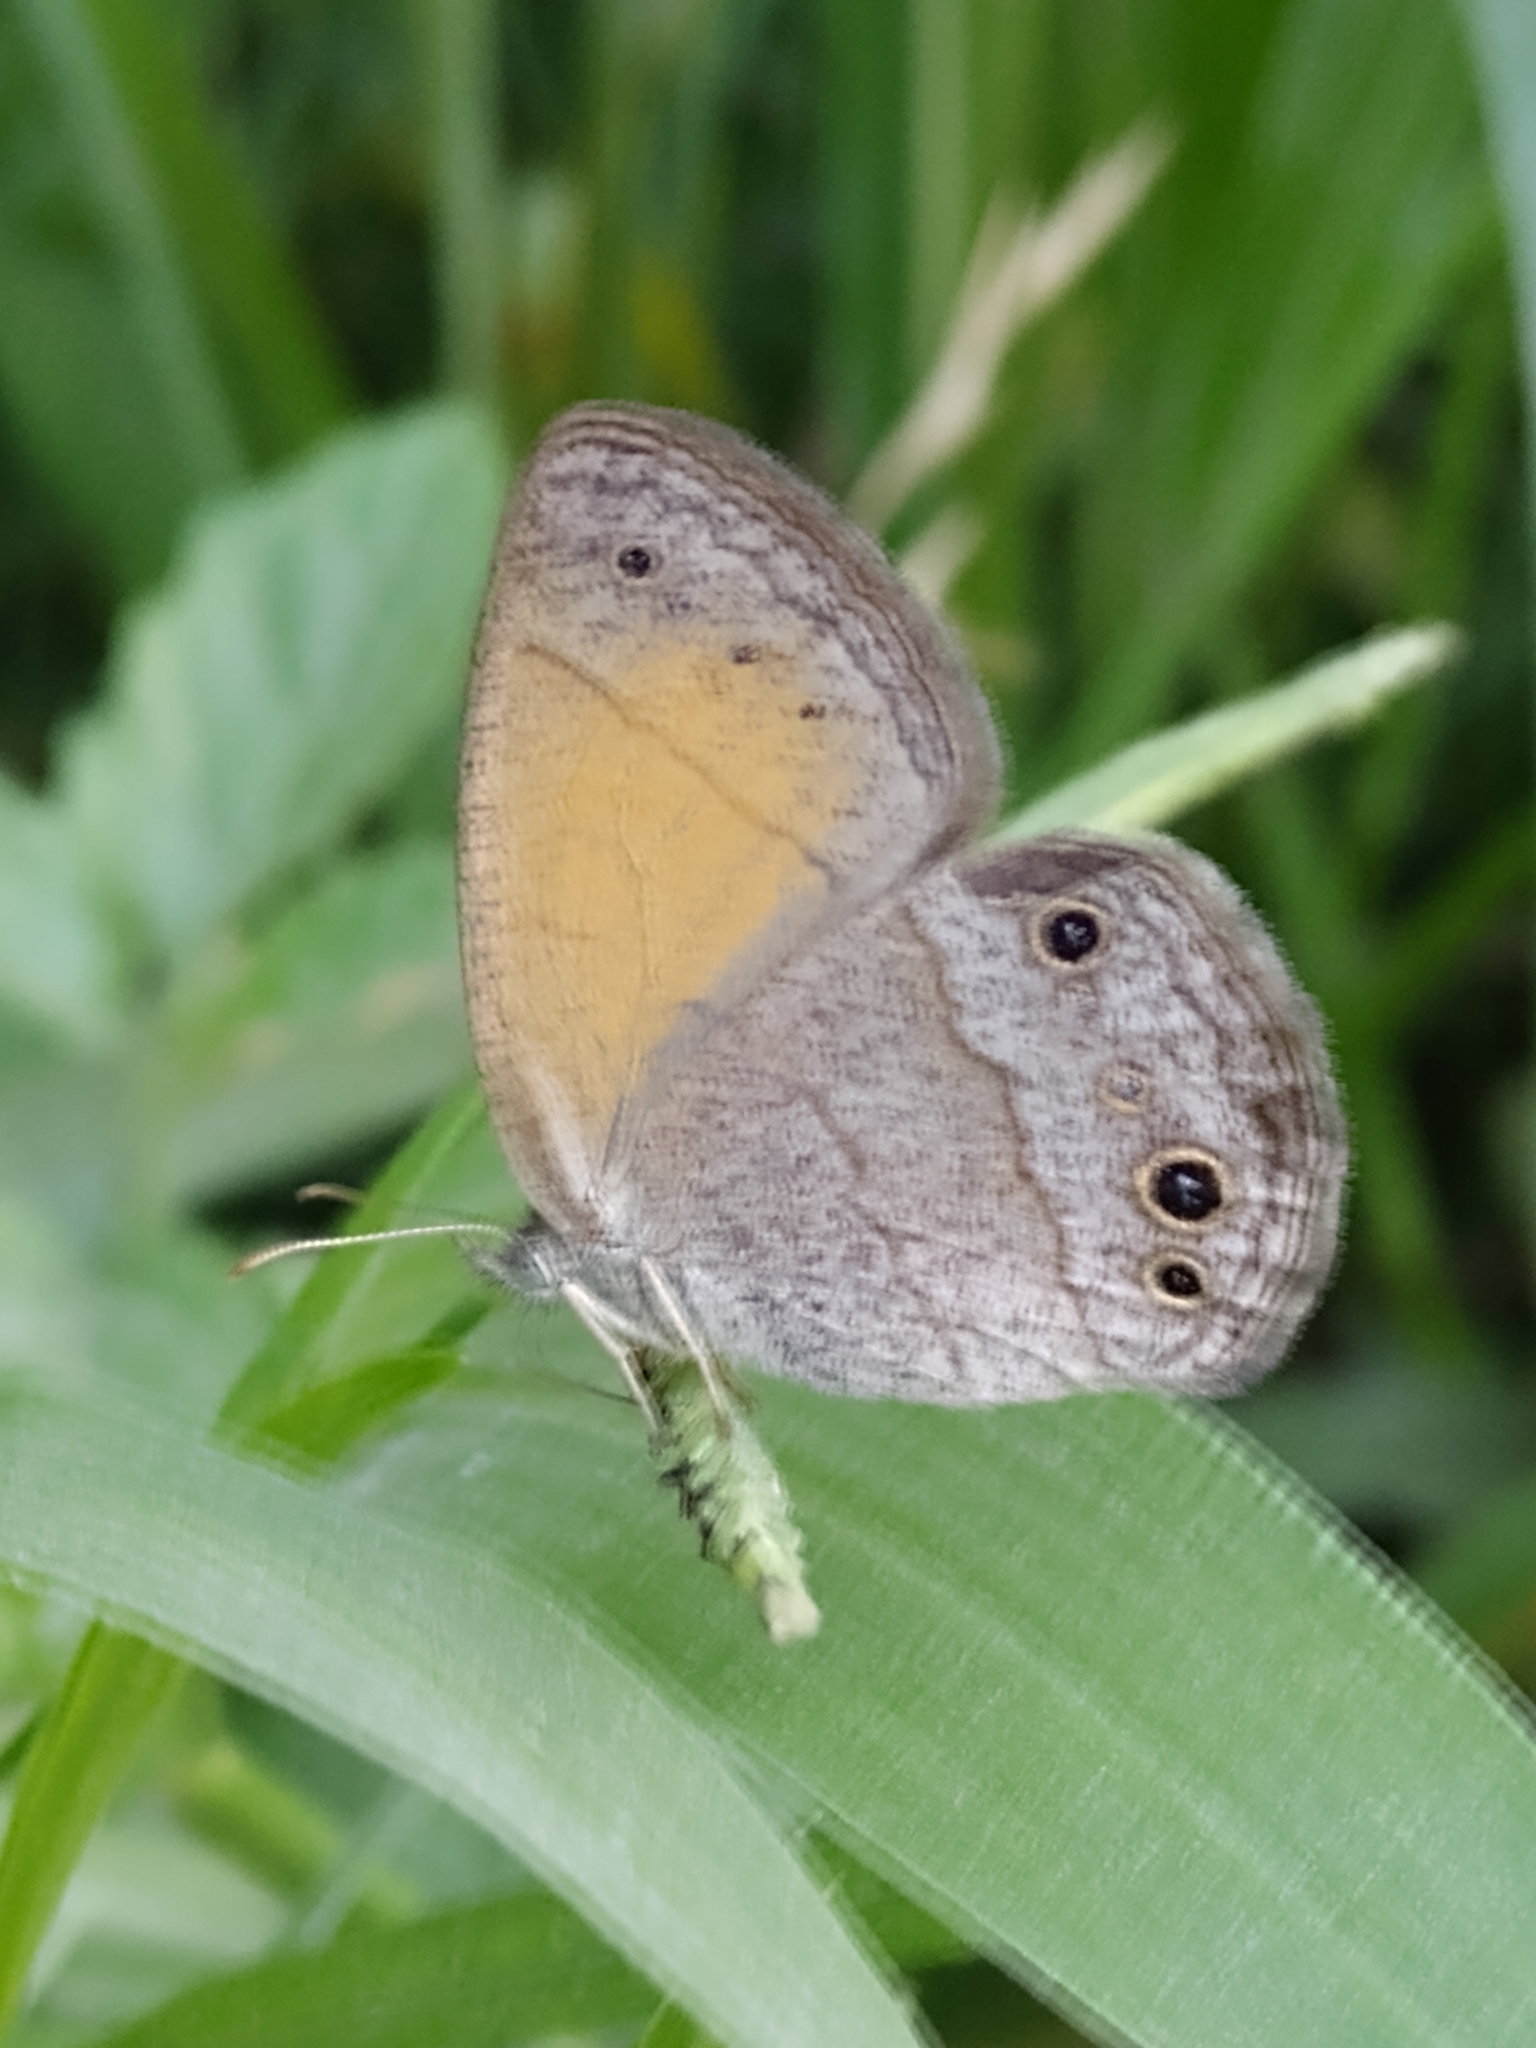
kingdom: Animalia
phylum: Arthropoda
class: Insecta
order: Lepidoptera
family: Nymphalidae
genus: Yphthimoides
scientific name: Yphthimoides celmis
